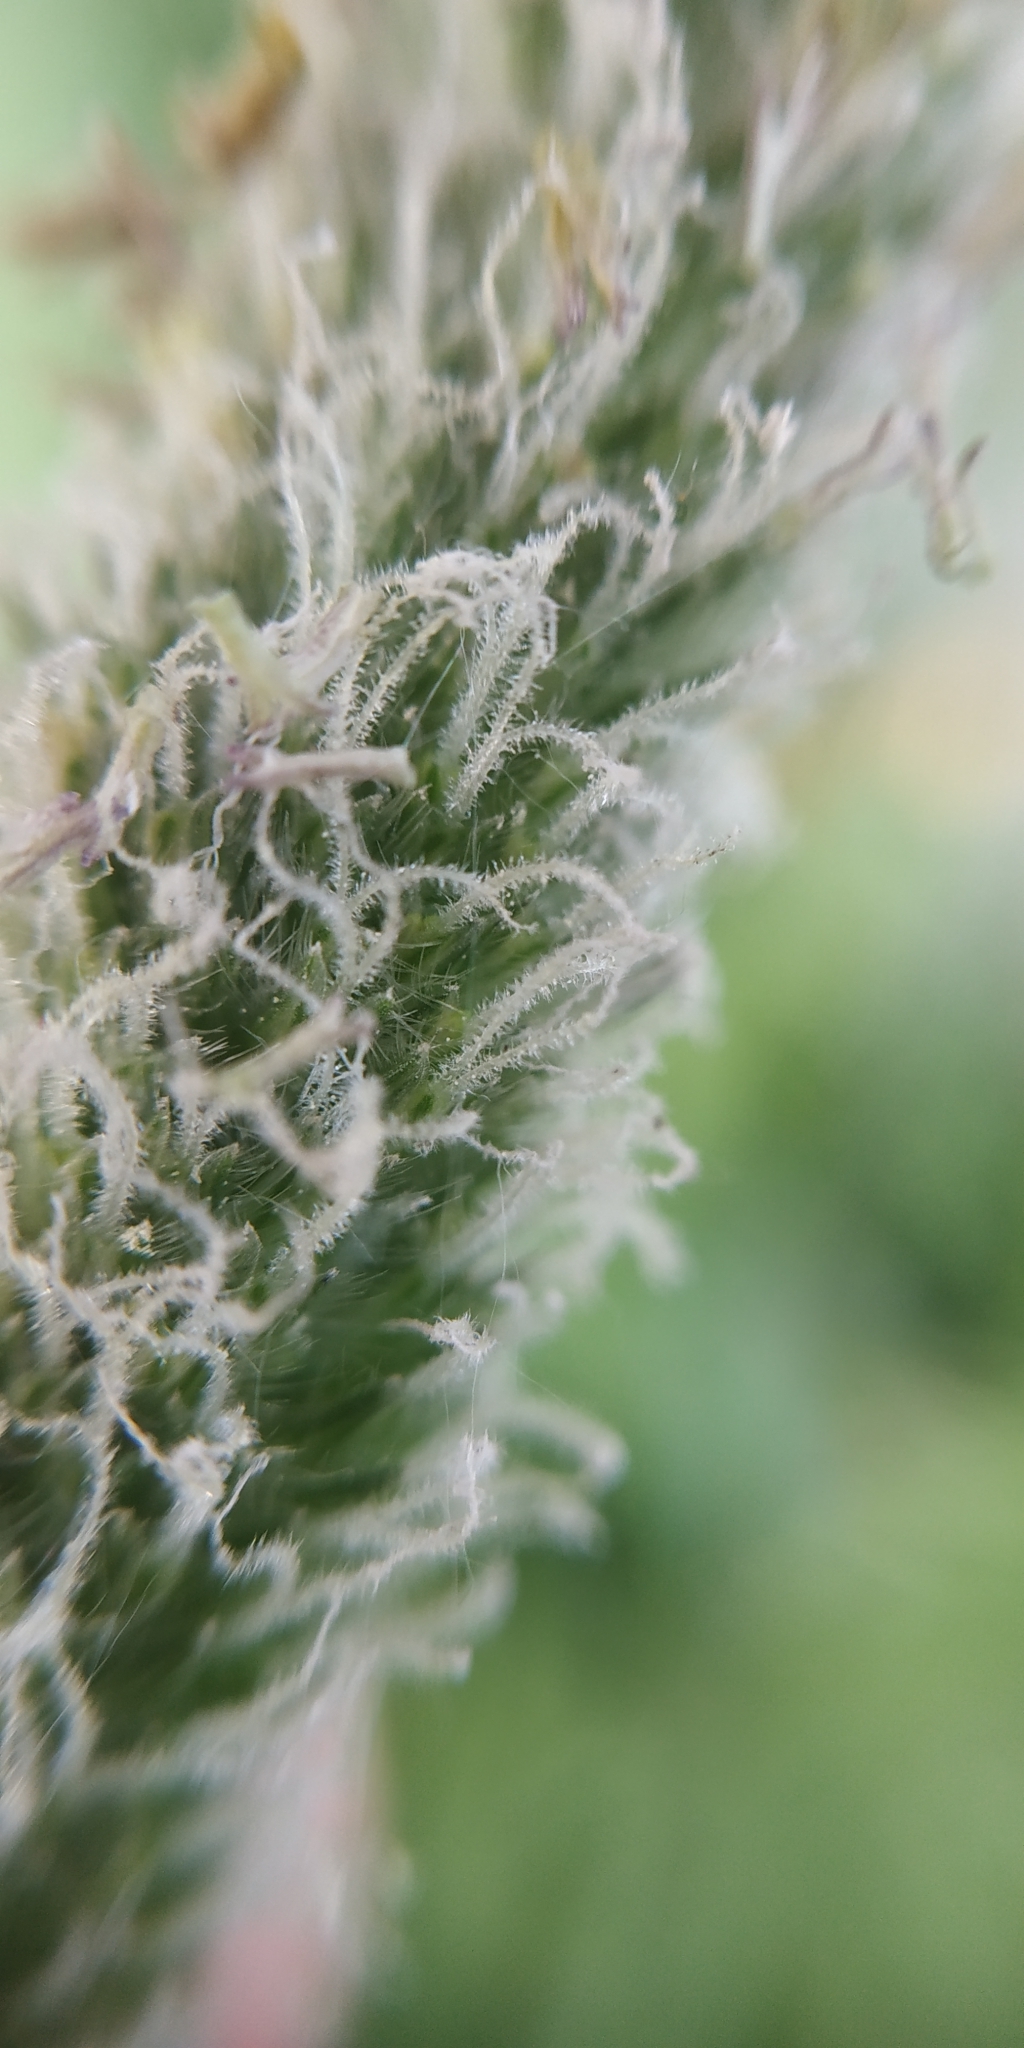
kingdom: Plantae
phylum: Tracheophyta
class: Liliopsida
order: Poales
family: Poaceae
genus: Phleum
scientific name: Phleum pratense
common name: Timothy grass
